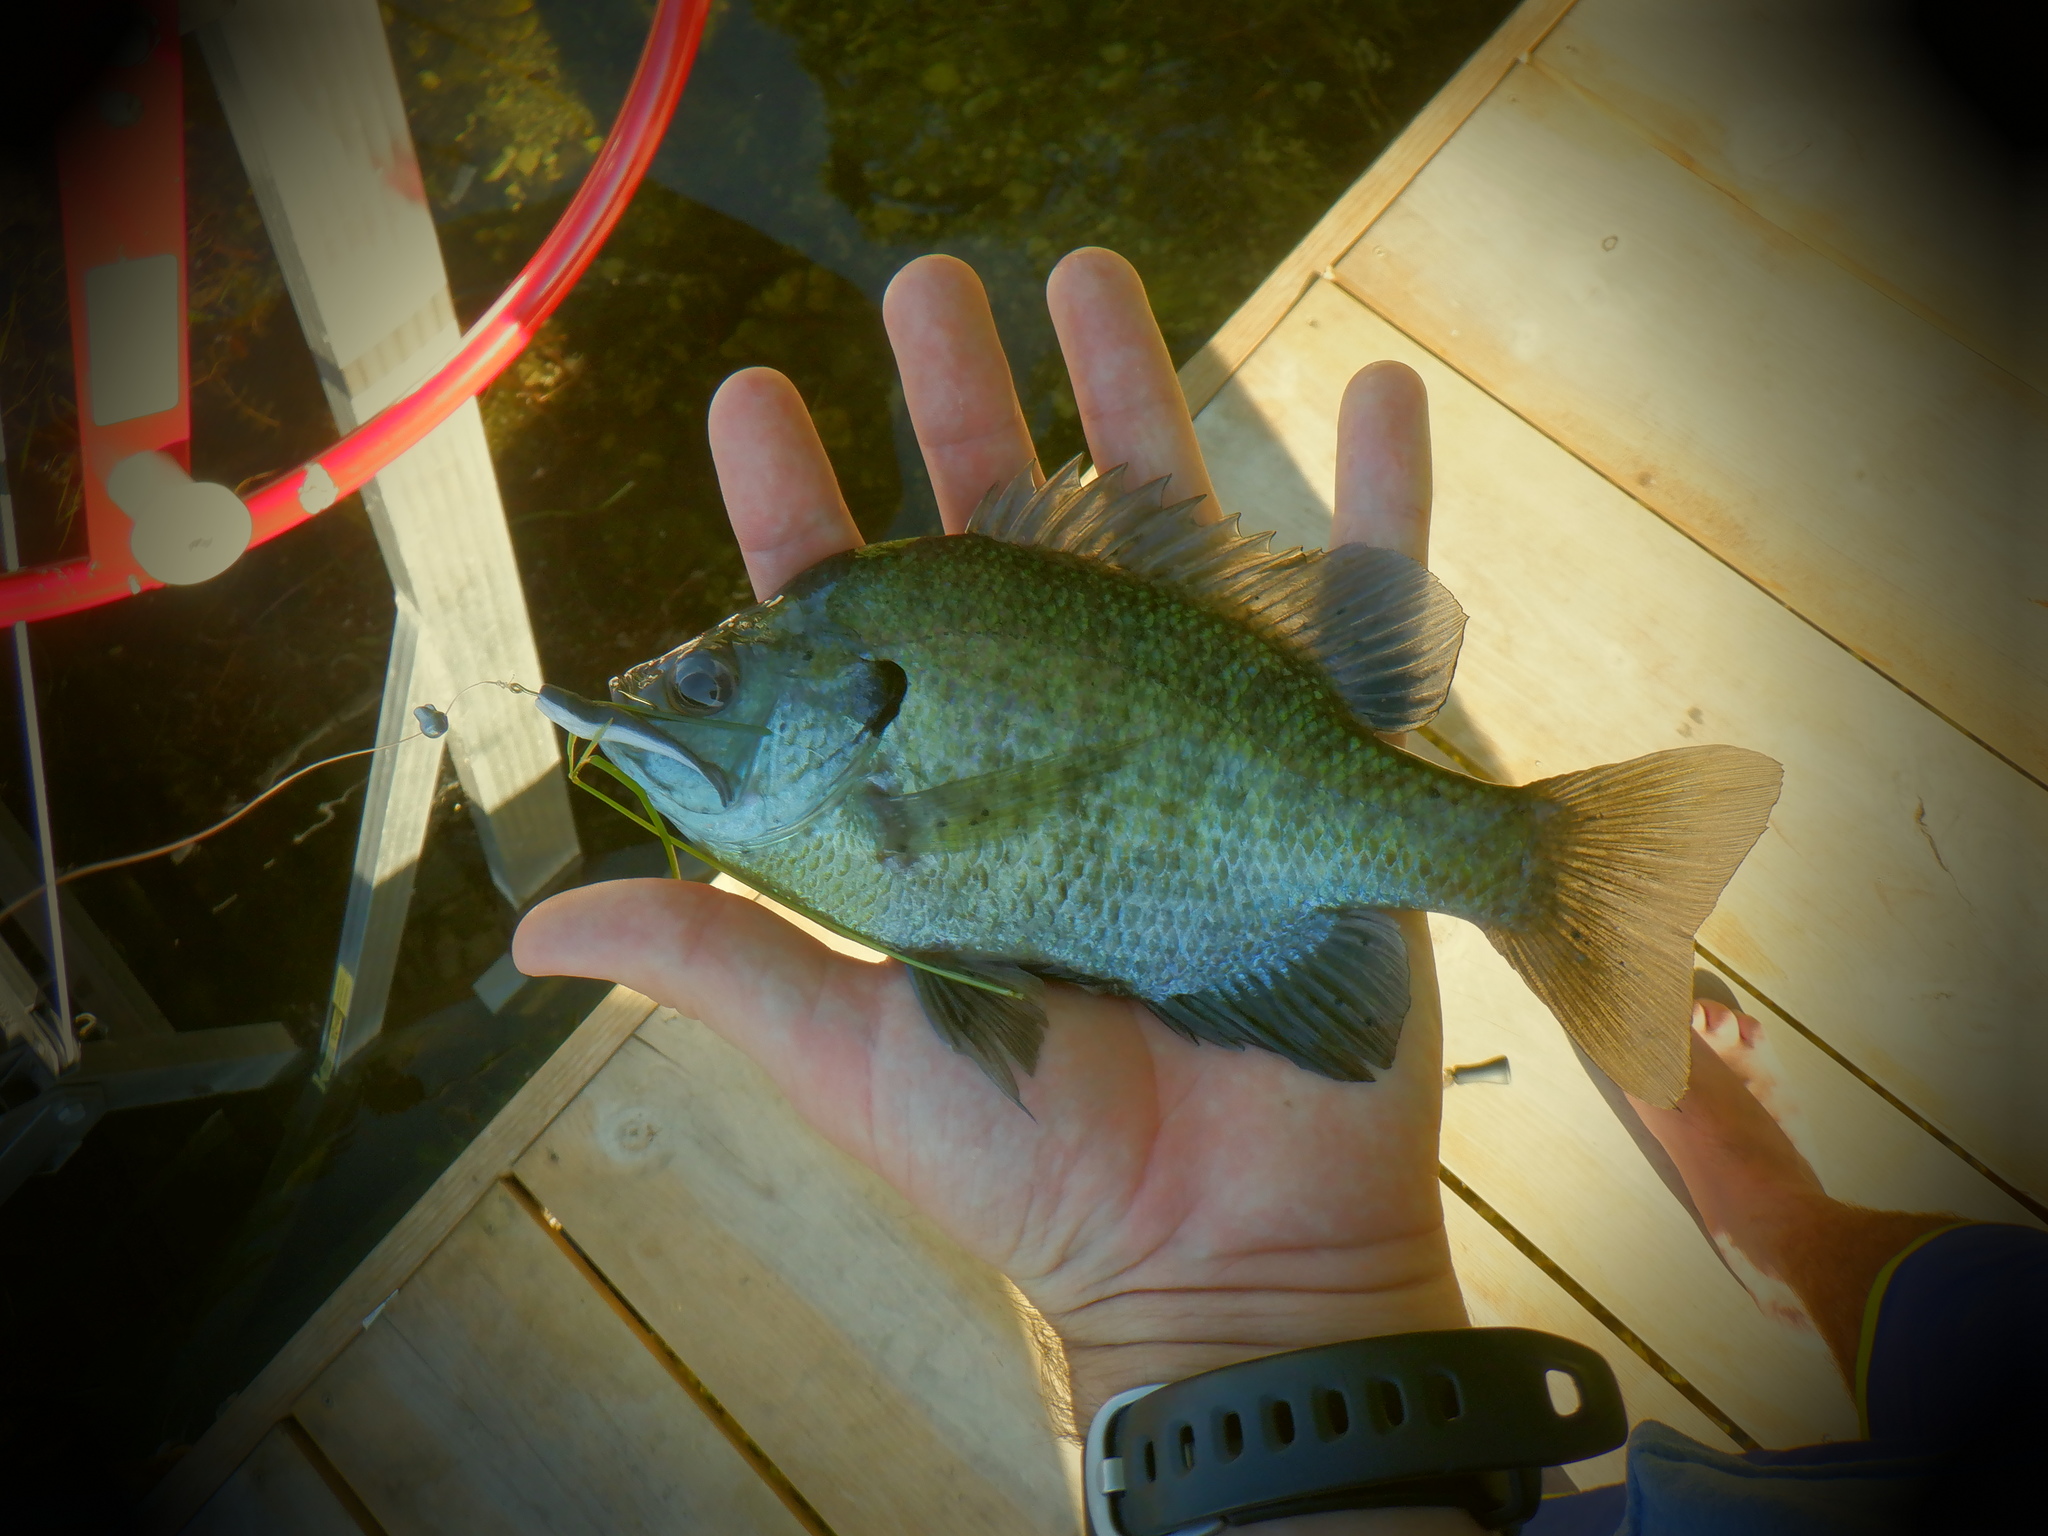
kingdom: Animalia
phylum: Chordata
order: Perciformes
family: Centrarchidae
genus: Lepomis
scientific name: Lepomis macrochirus
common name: Bluegill
